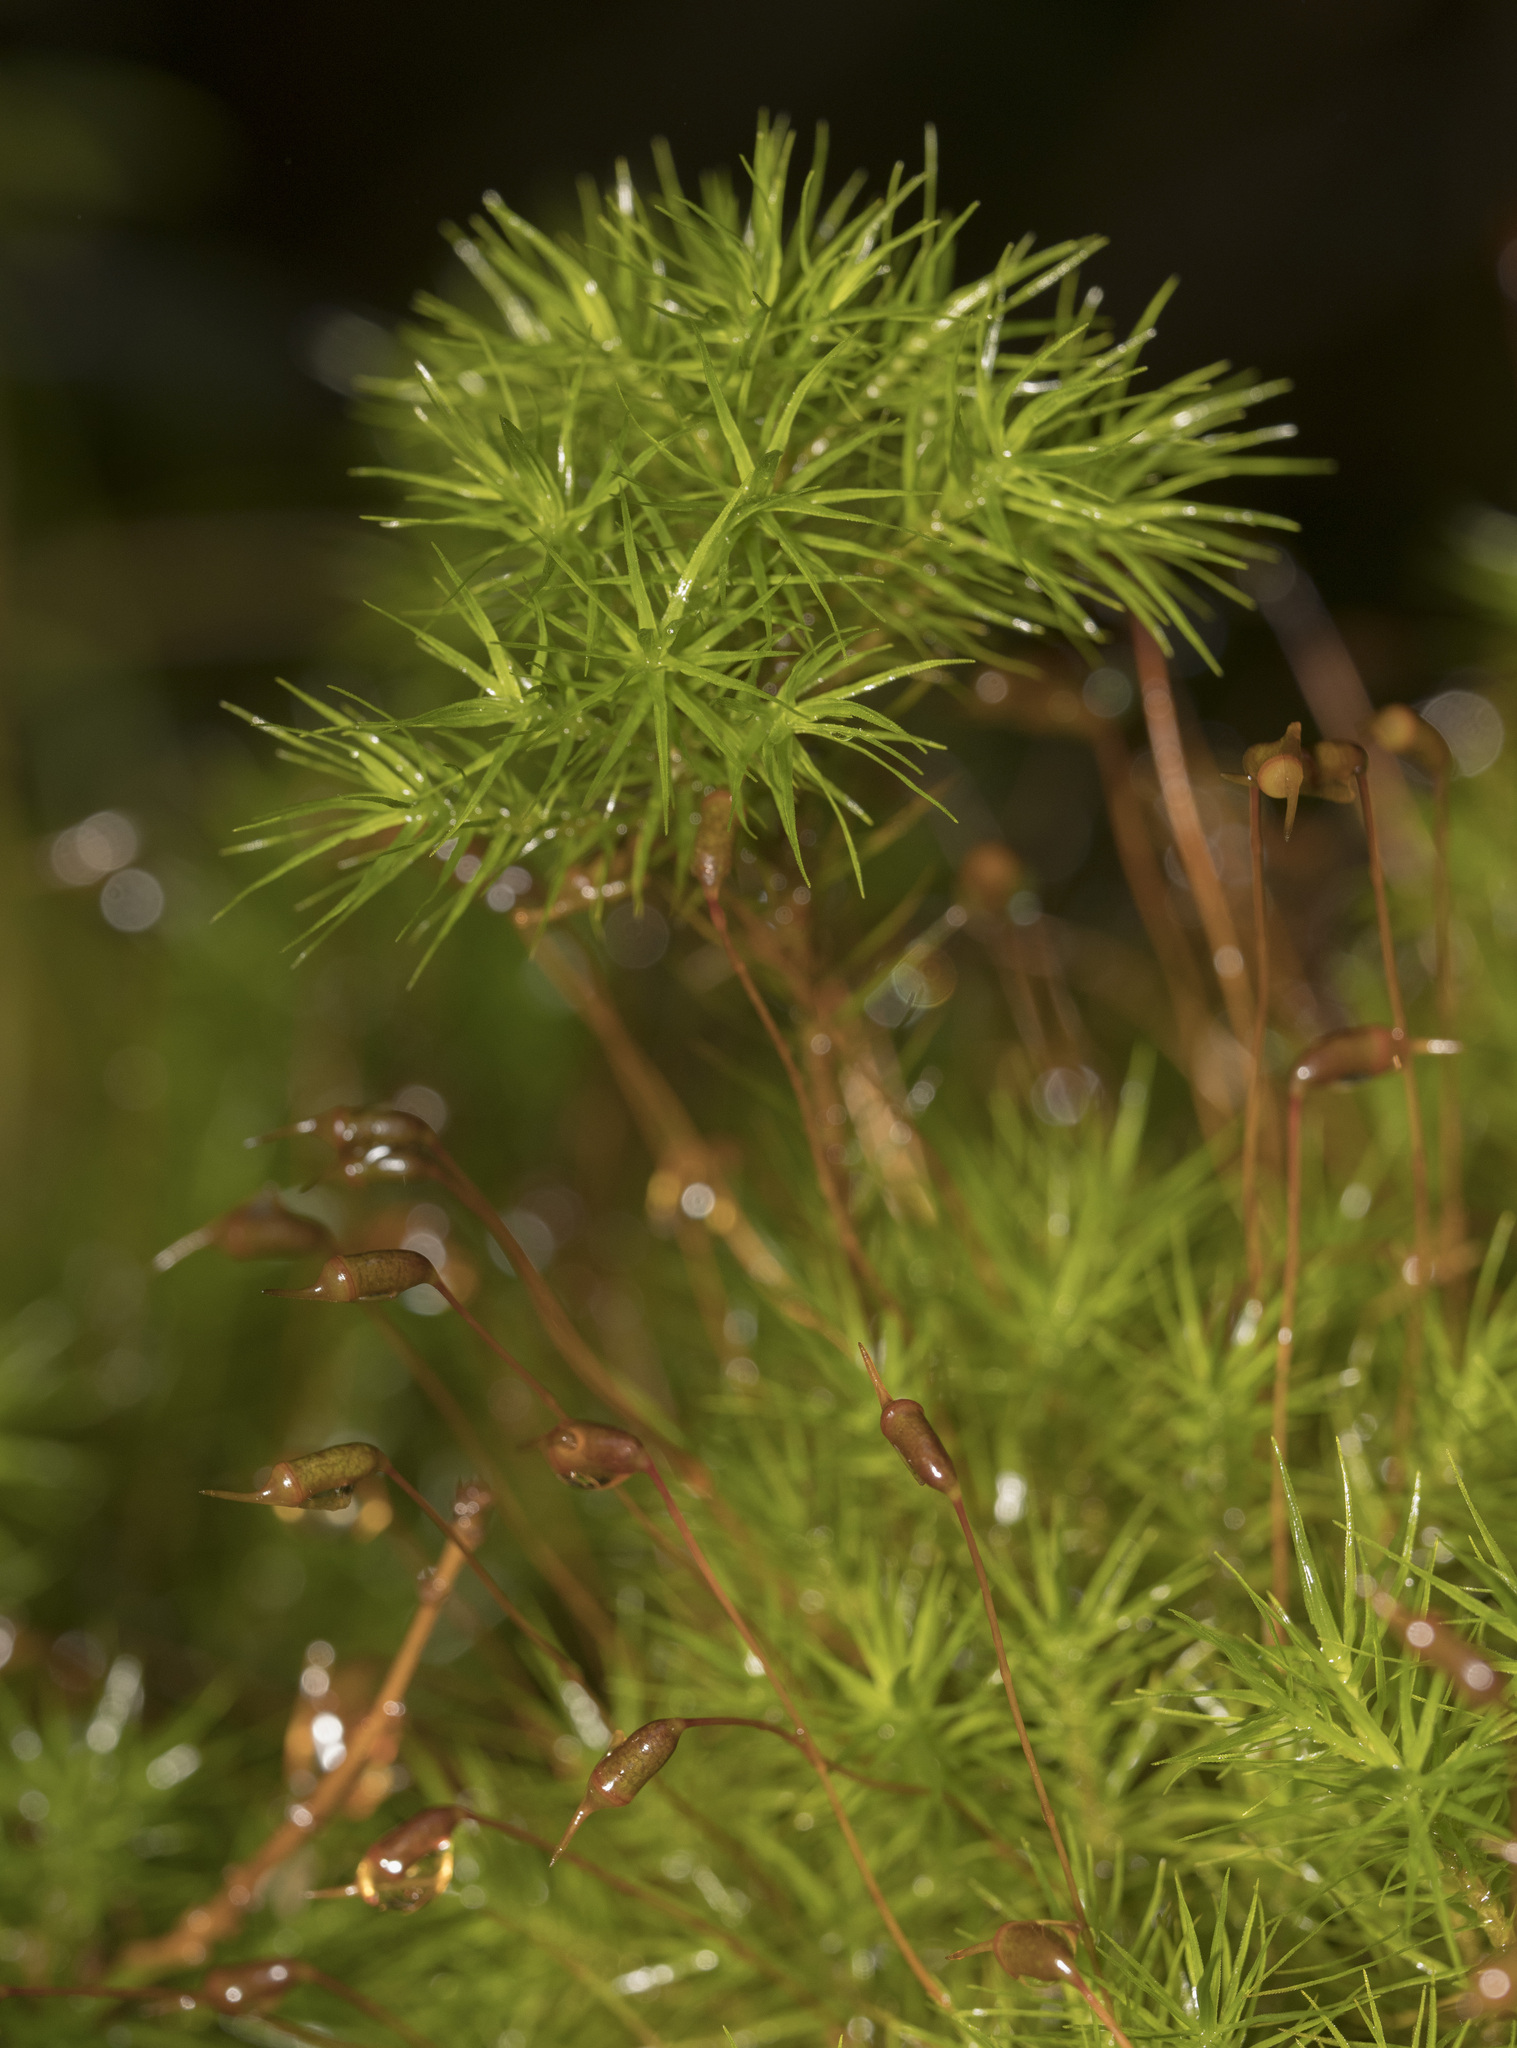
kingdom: Plantae
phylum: Bryophyta
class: Polytrichopsida
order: Polytrichales
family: Polytrichaceae
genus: Dendroligotrichum
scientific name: Dendroligotrichum dendroides
